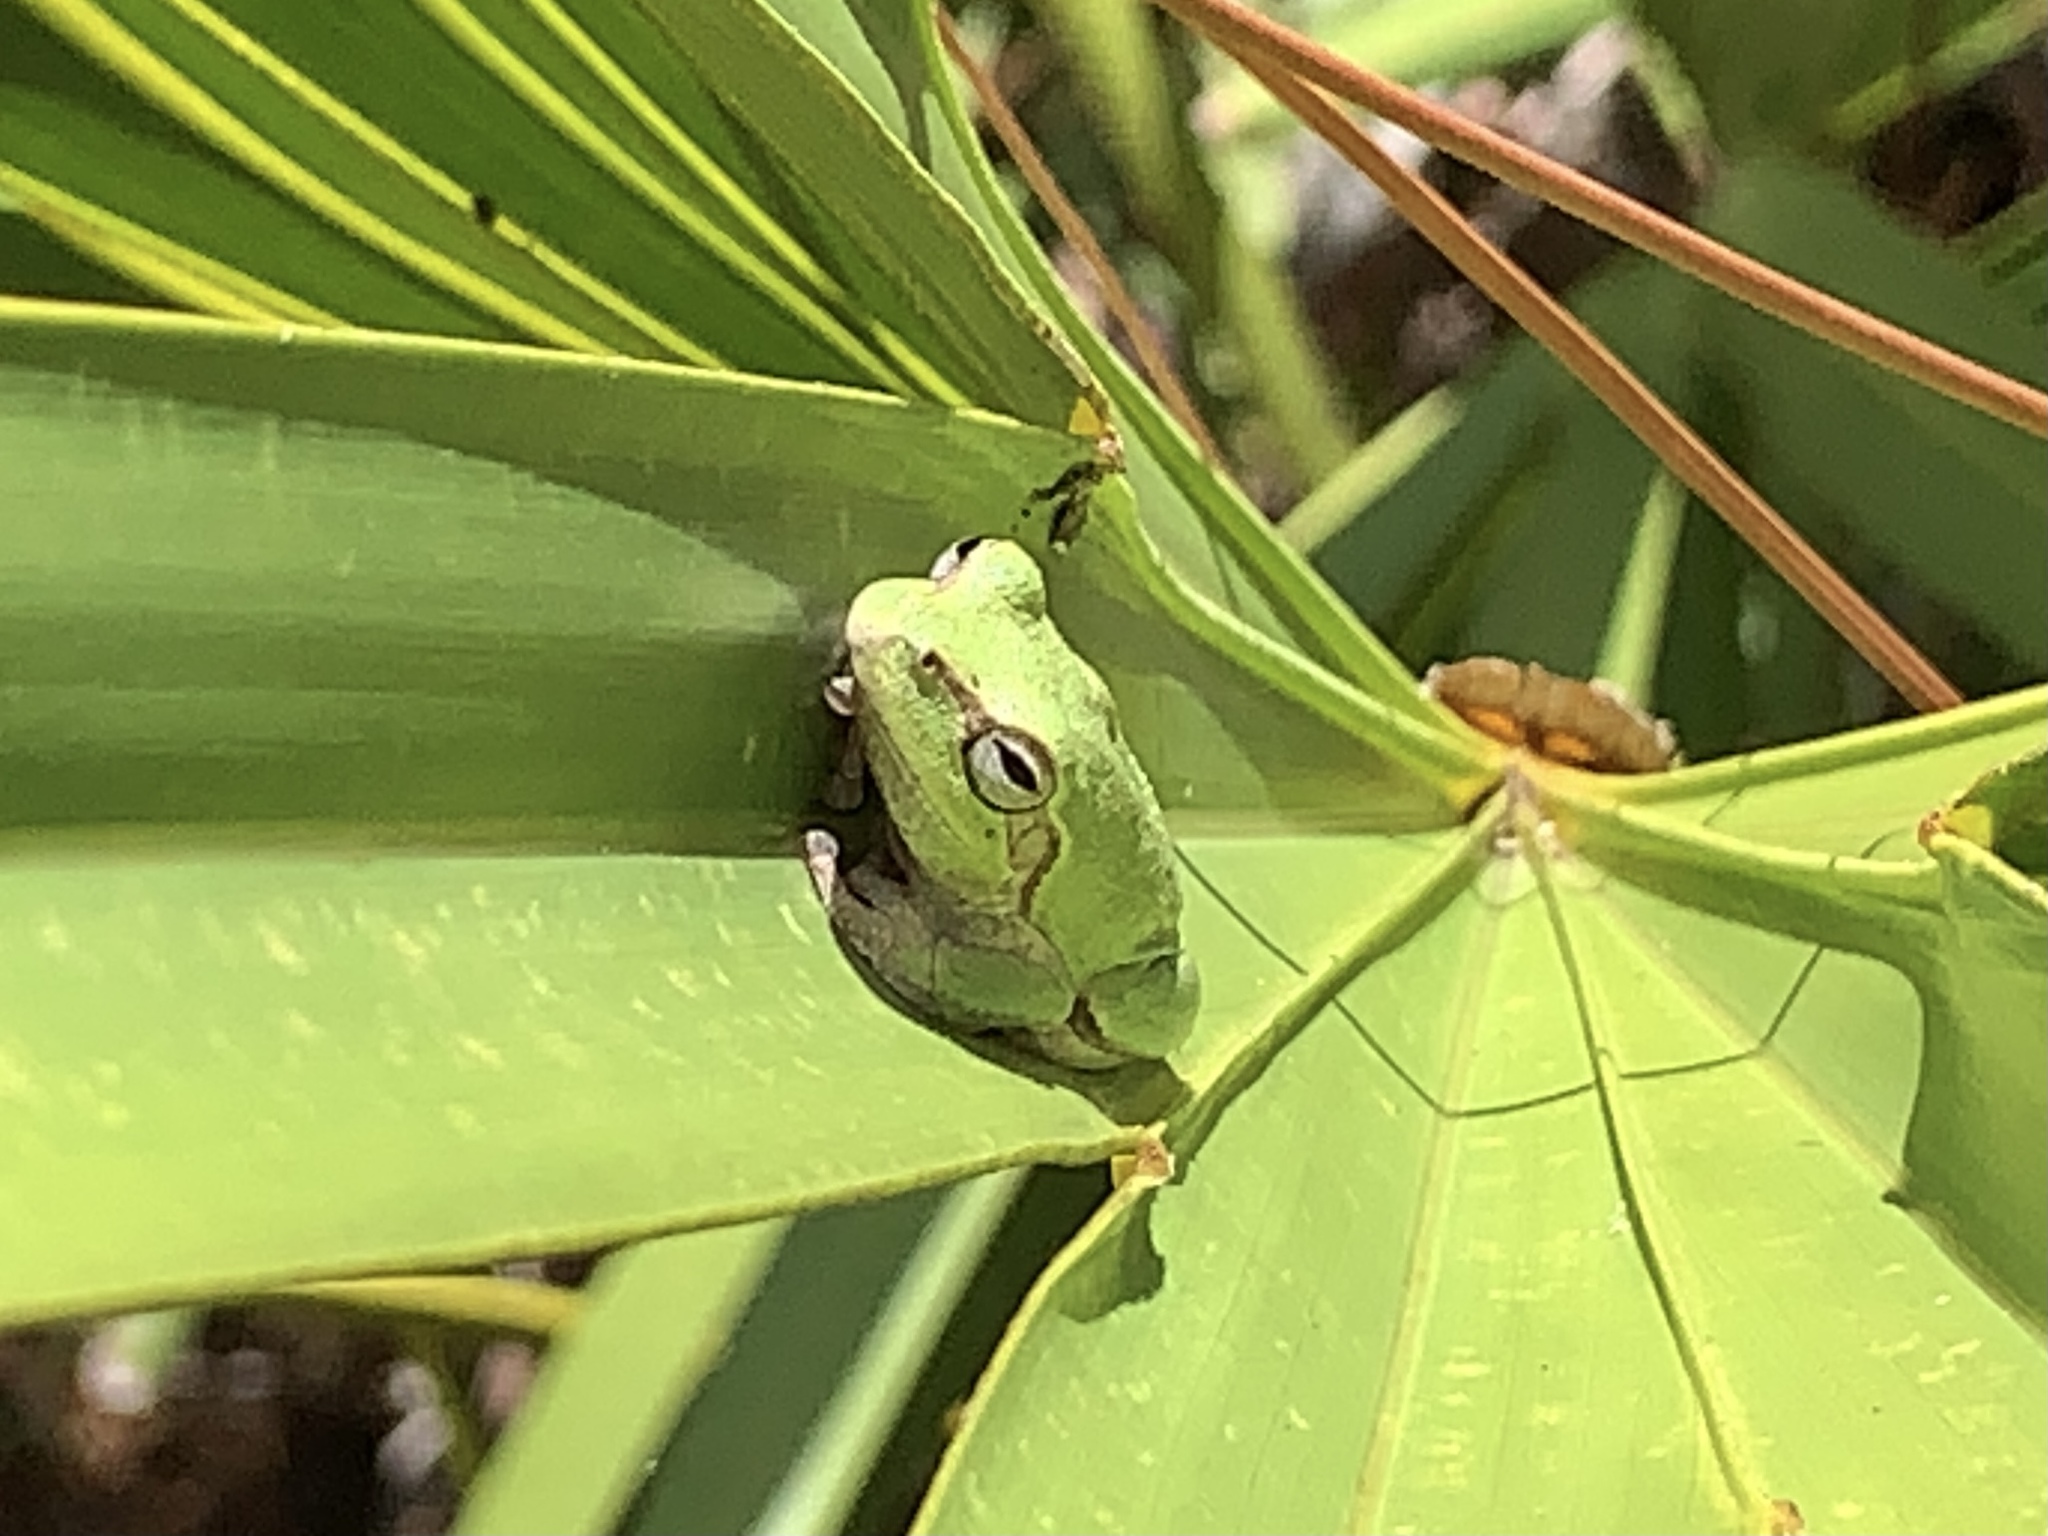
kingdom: Animalia
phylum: Chordata
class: Amphibia
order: Anura
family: Hylidae
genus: Hyla
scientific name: Hyla femoralis
